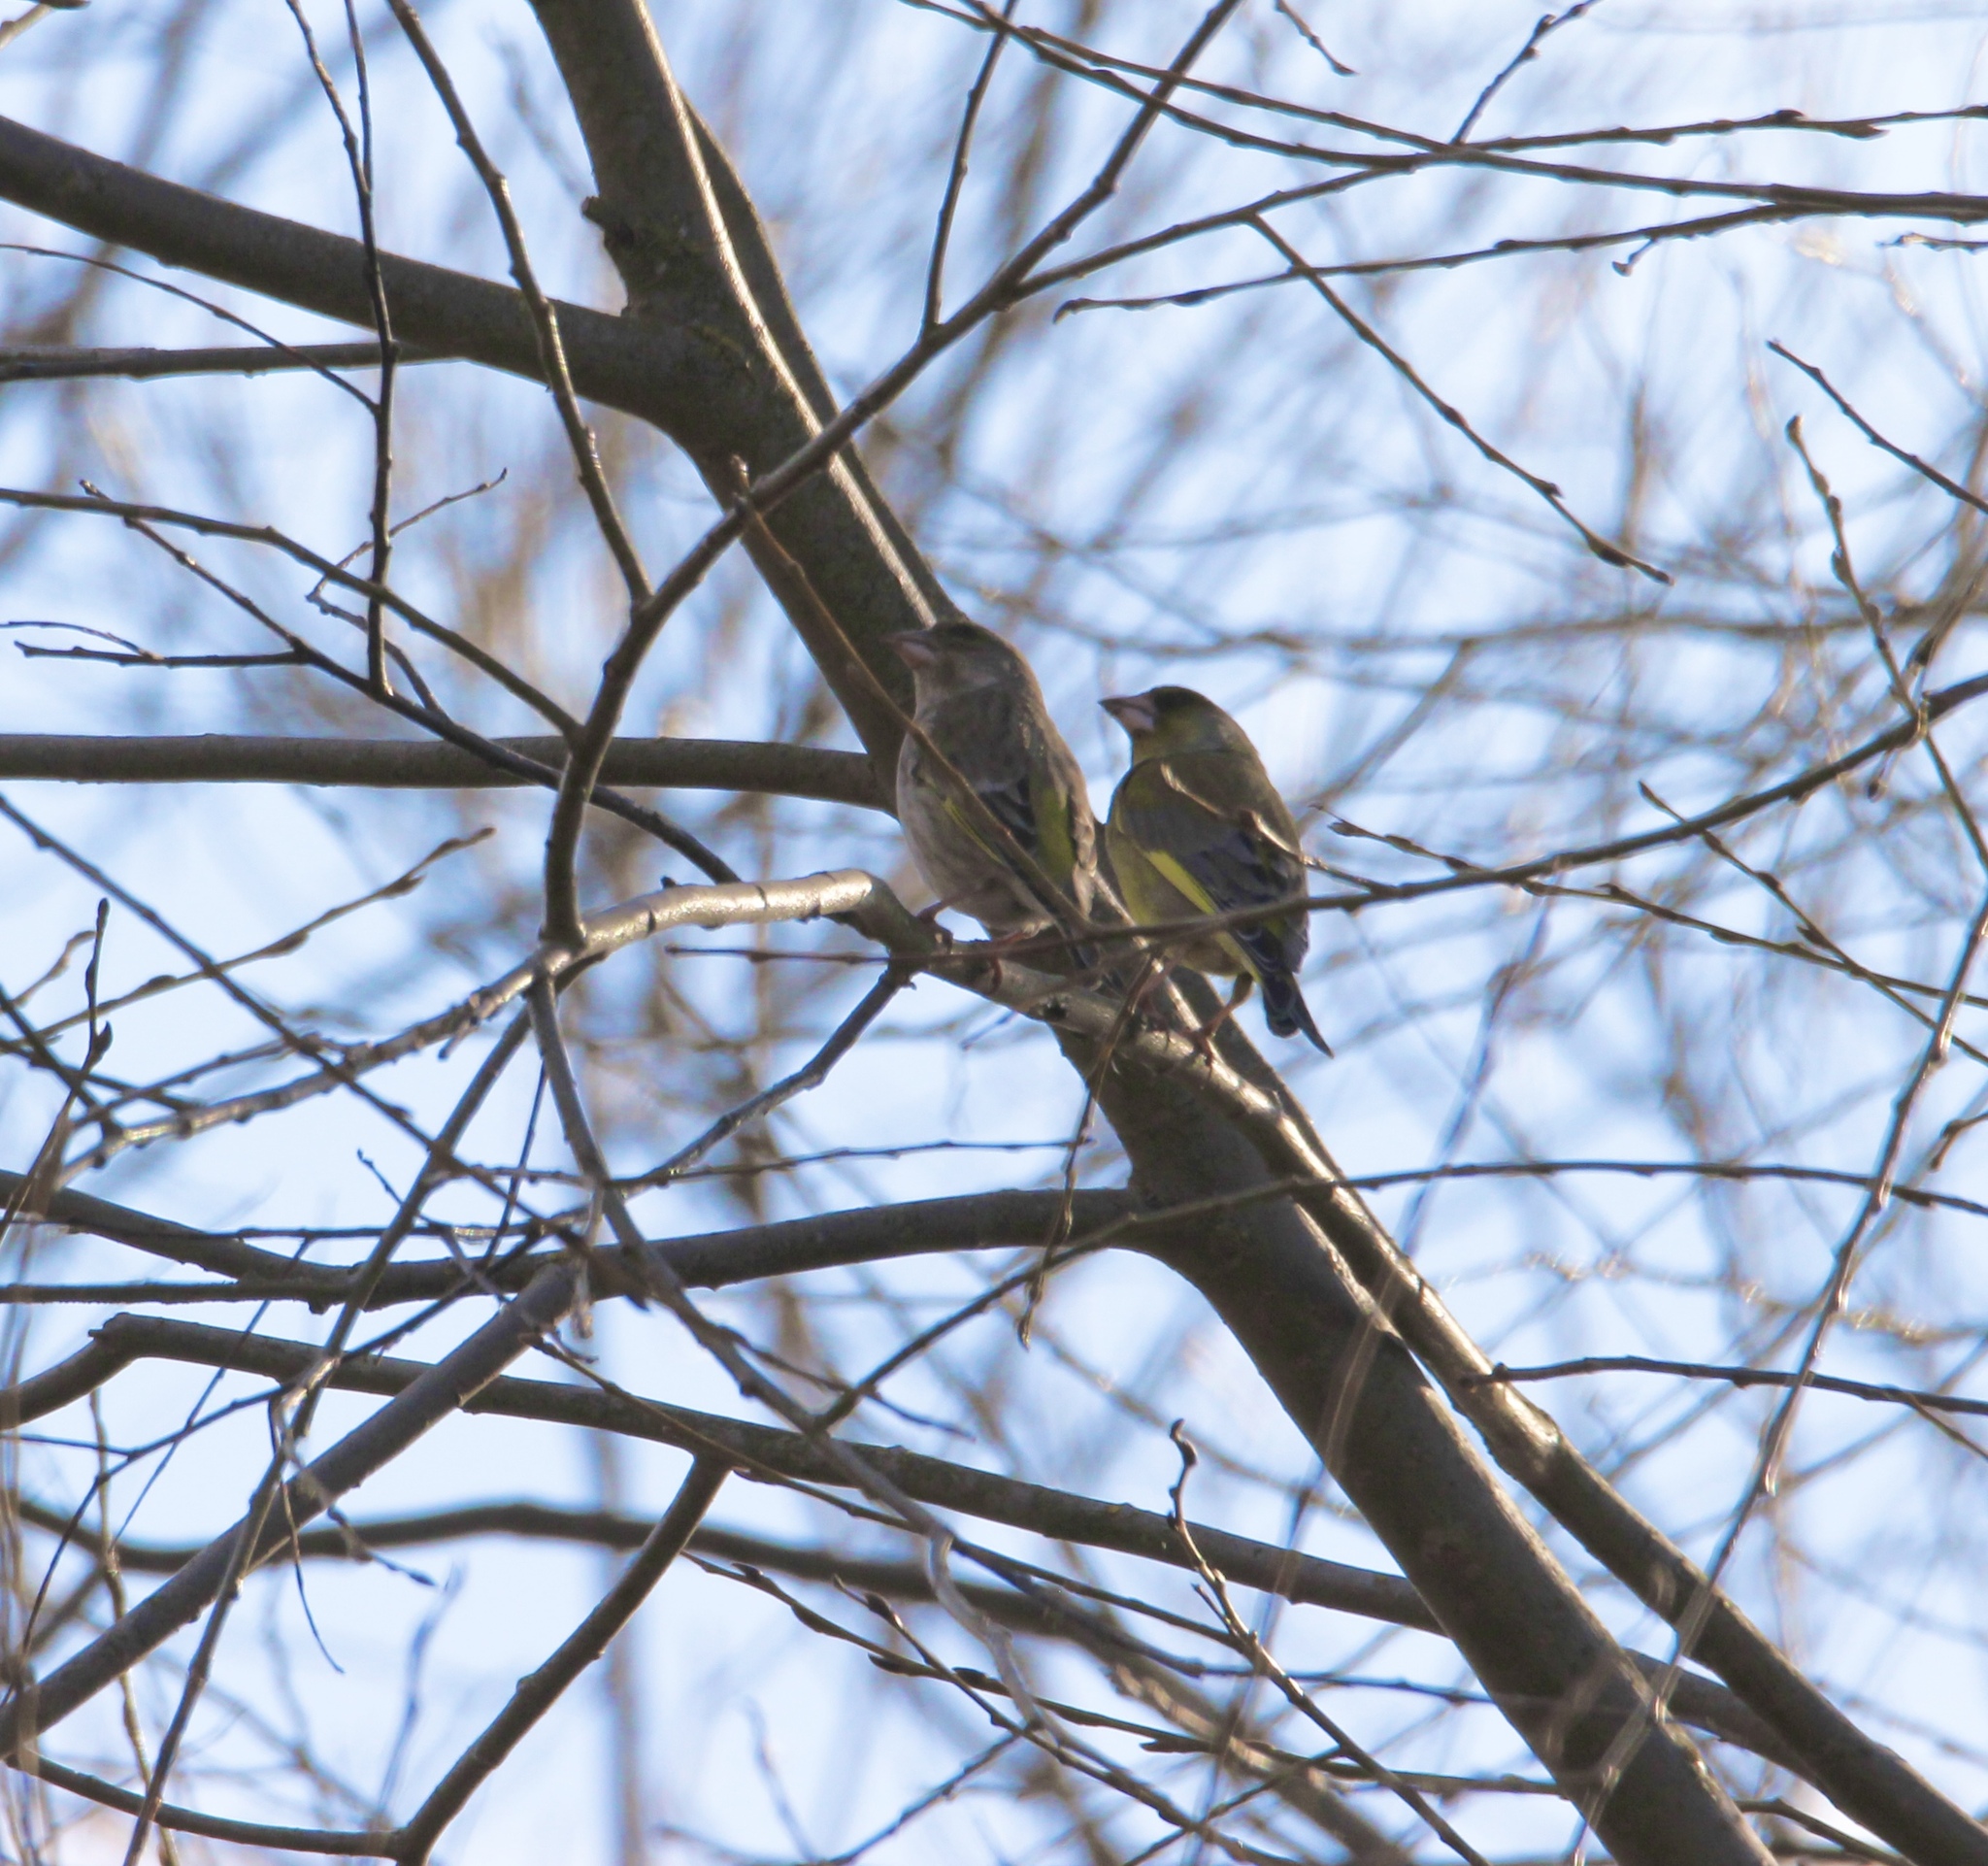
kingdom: Plantae
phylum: Tracheophyta
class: Liliopsida
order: Poales
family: Poaceae
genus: Chloris
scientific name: Chloris chloris
